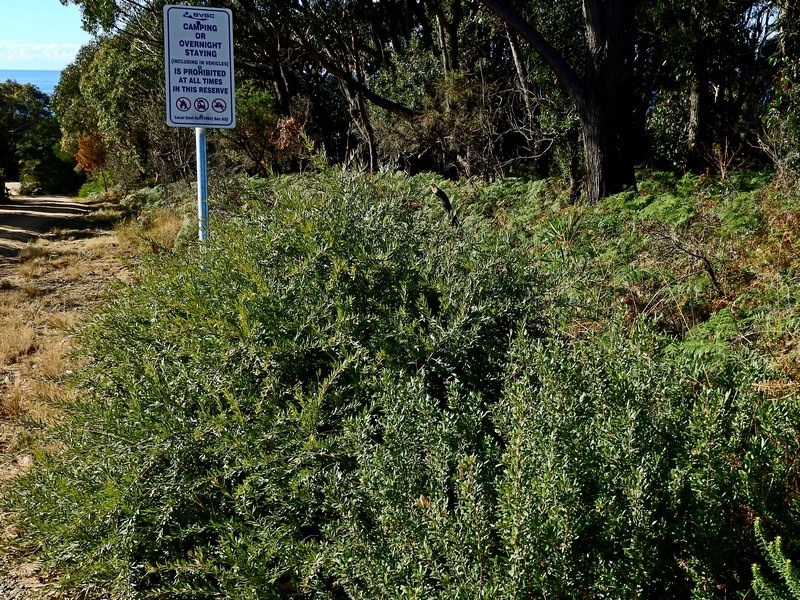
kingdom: Plantae
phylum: Tracheophyta
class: Magnoliopsida
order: Proteales
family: Proteaceae
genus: Grevillea
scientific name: Grevillea mucronulata
